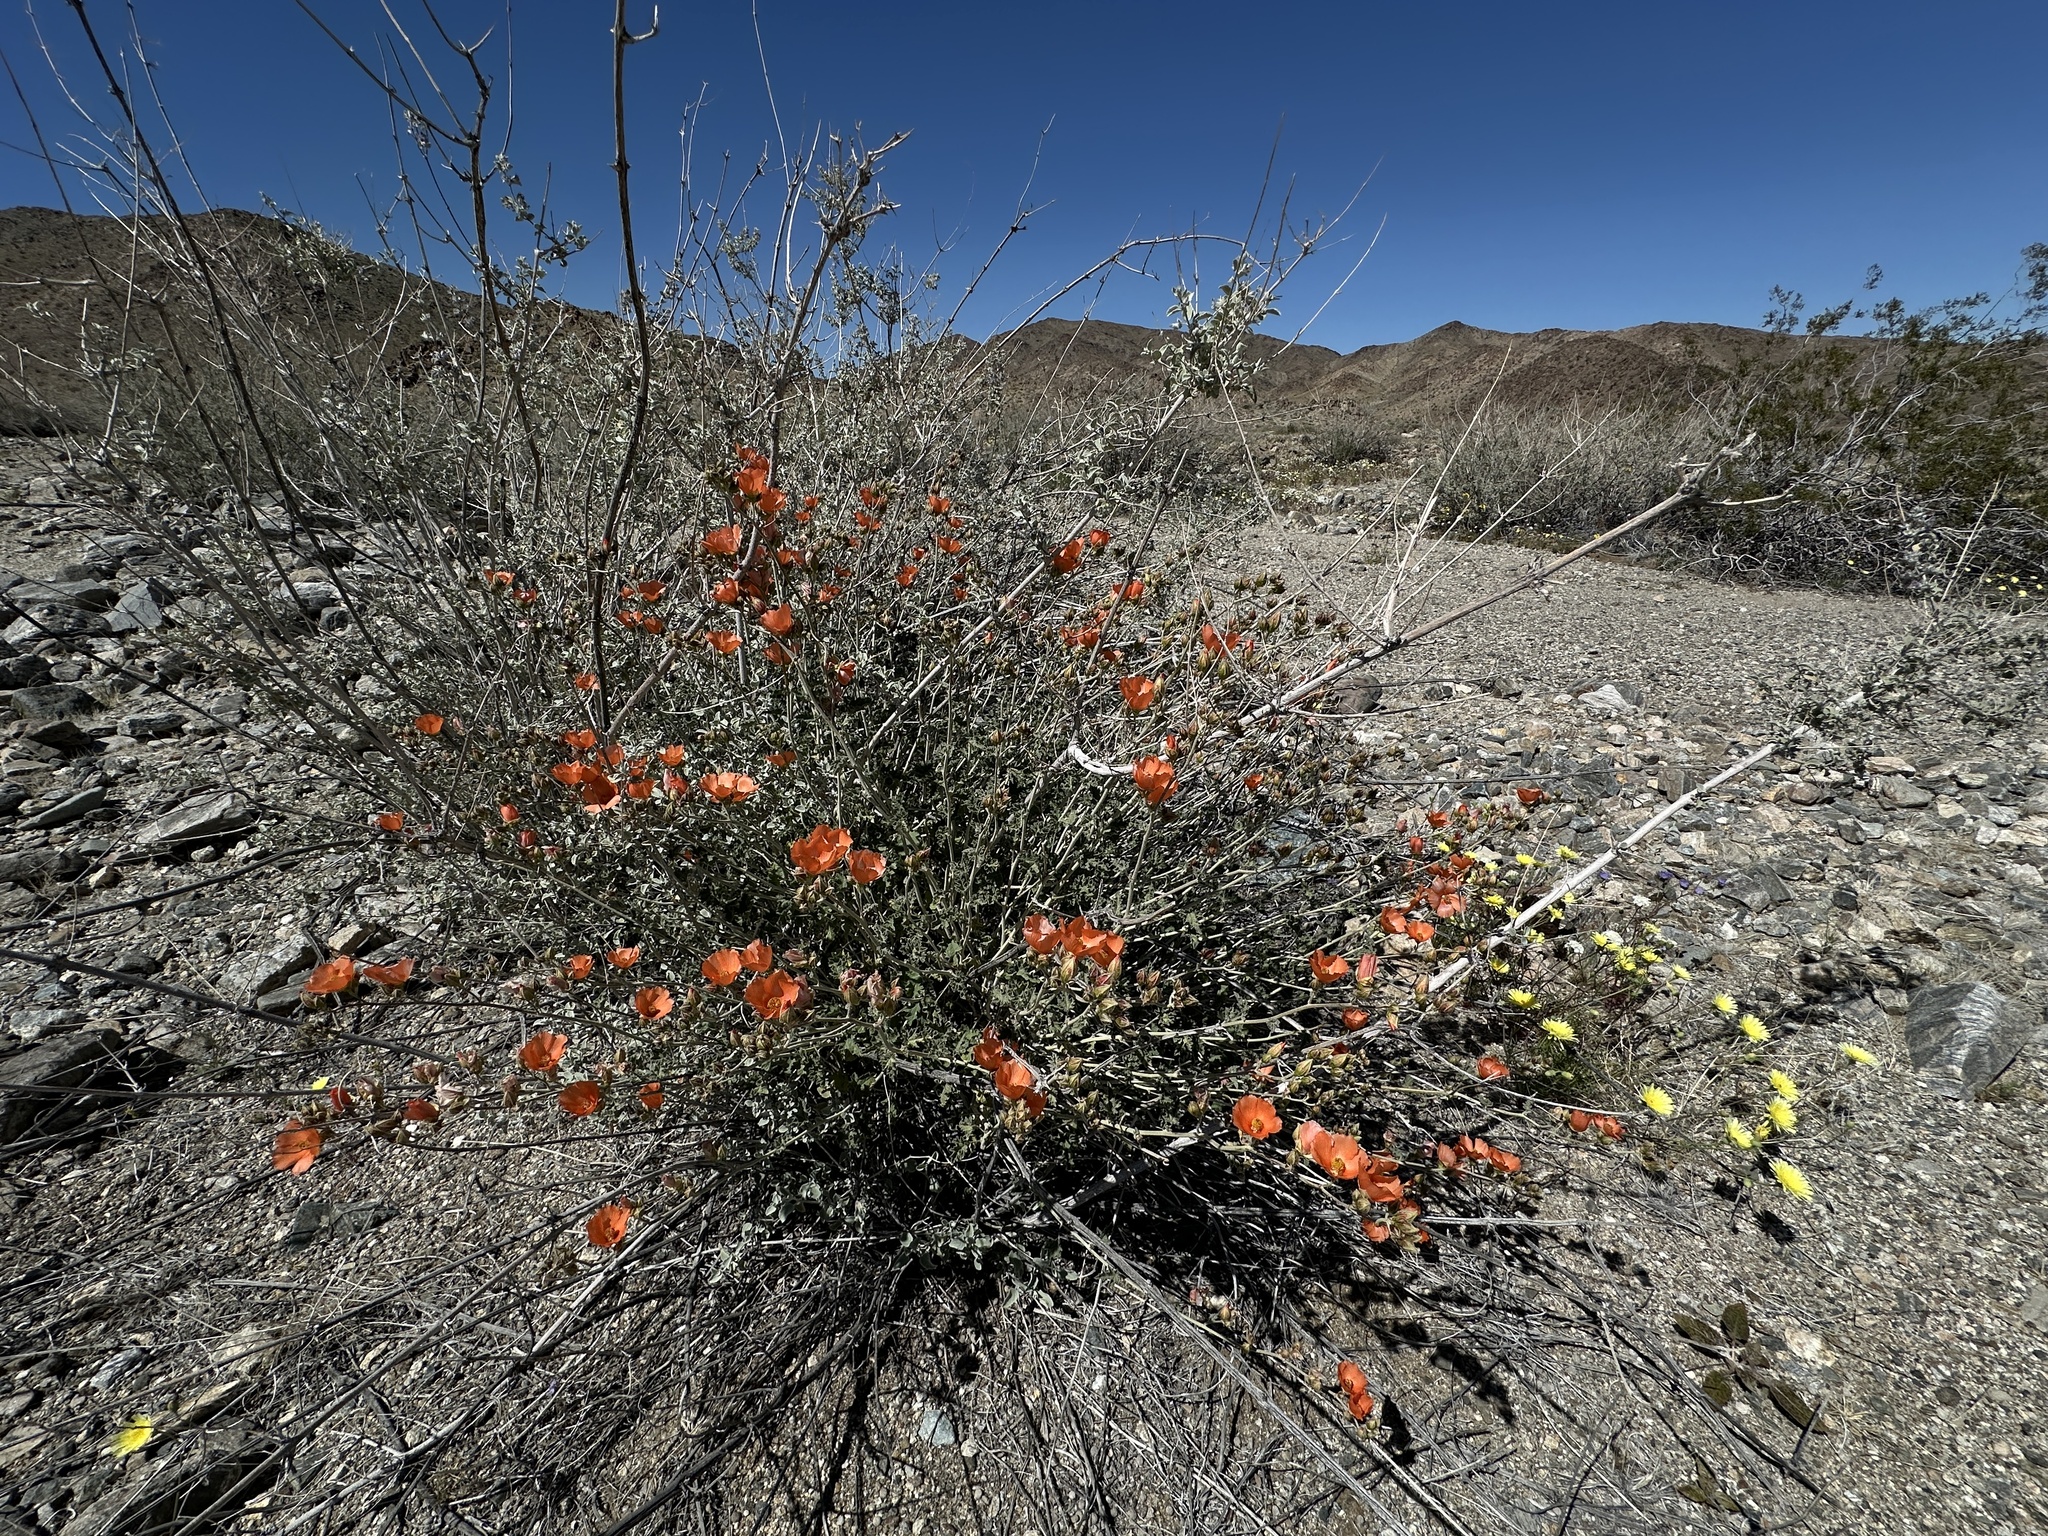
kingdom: Plantae
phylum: Tracheophyta
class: Magnoliopsida
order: Malvales
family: Malvaceae
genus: Sphaeralcea
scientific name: Sphaeralcea ambigua
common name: Apricot globe-mallow
